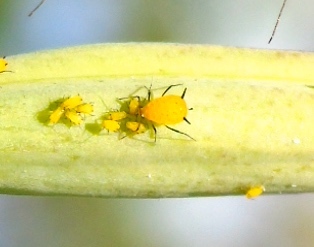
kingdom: Animalia
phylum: Arthropoda
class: Insecta
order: Hemiptera
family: Aphididae
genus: Aphis
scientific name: Aphis nerii
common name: Oleander aphid
